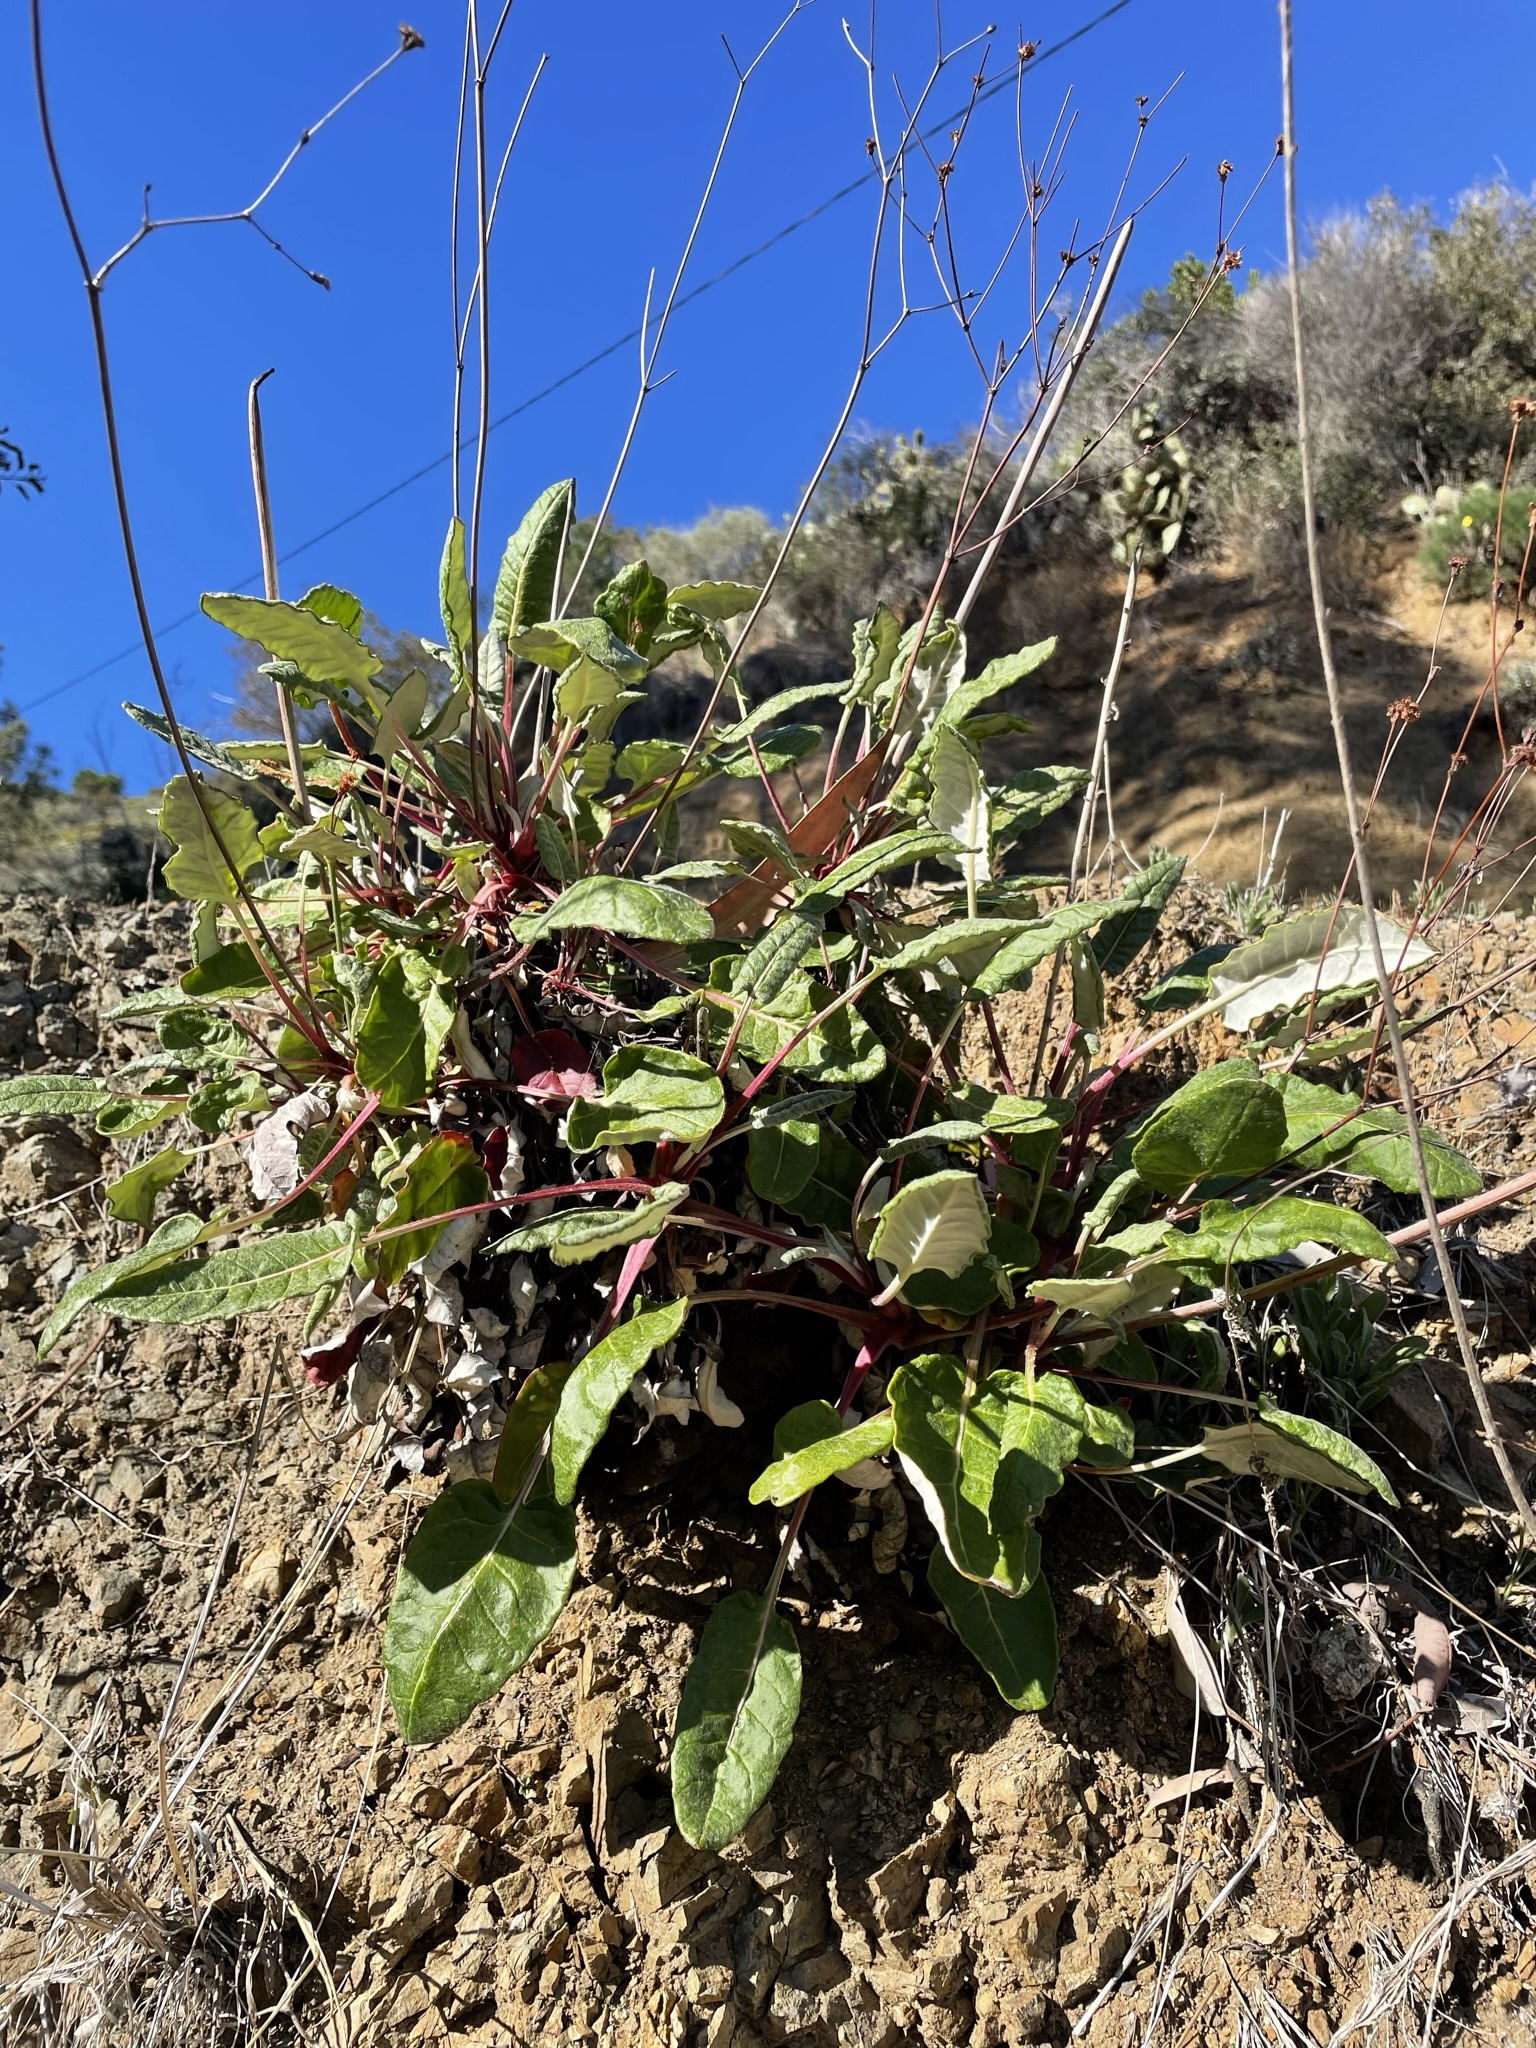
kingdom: Plantae
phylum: Tracheophyta
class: Magnoliopsida
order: Caryophyllales
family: Polygonaceae
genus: Eriogonum
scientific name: Eriogonum grande
